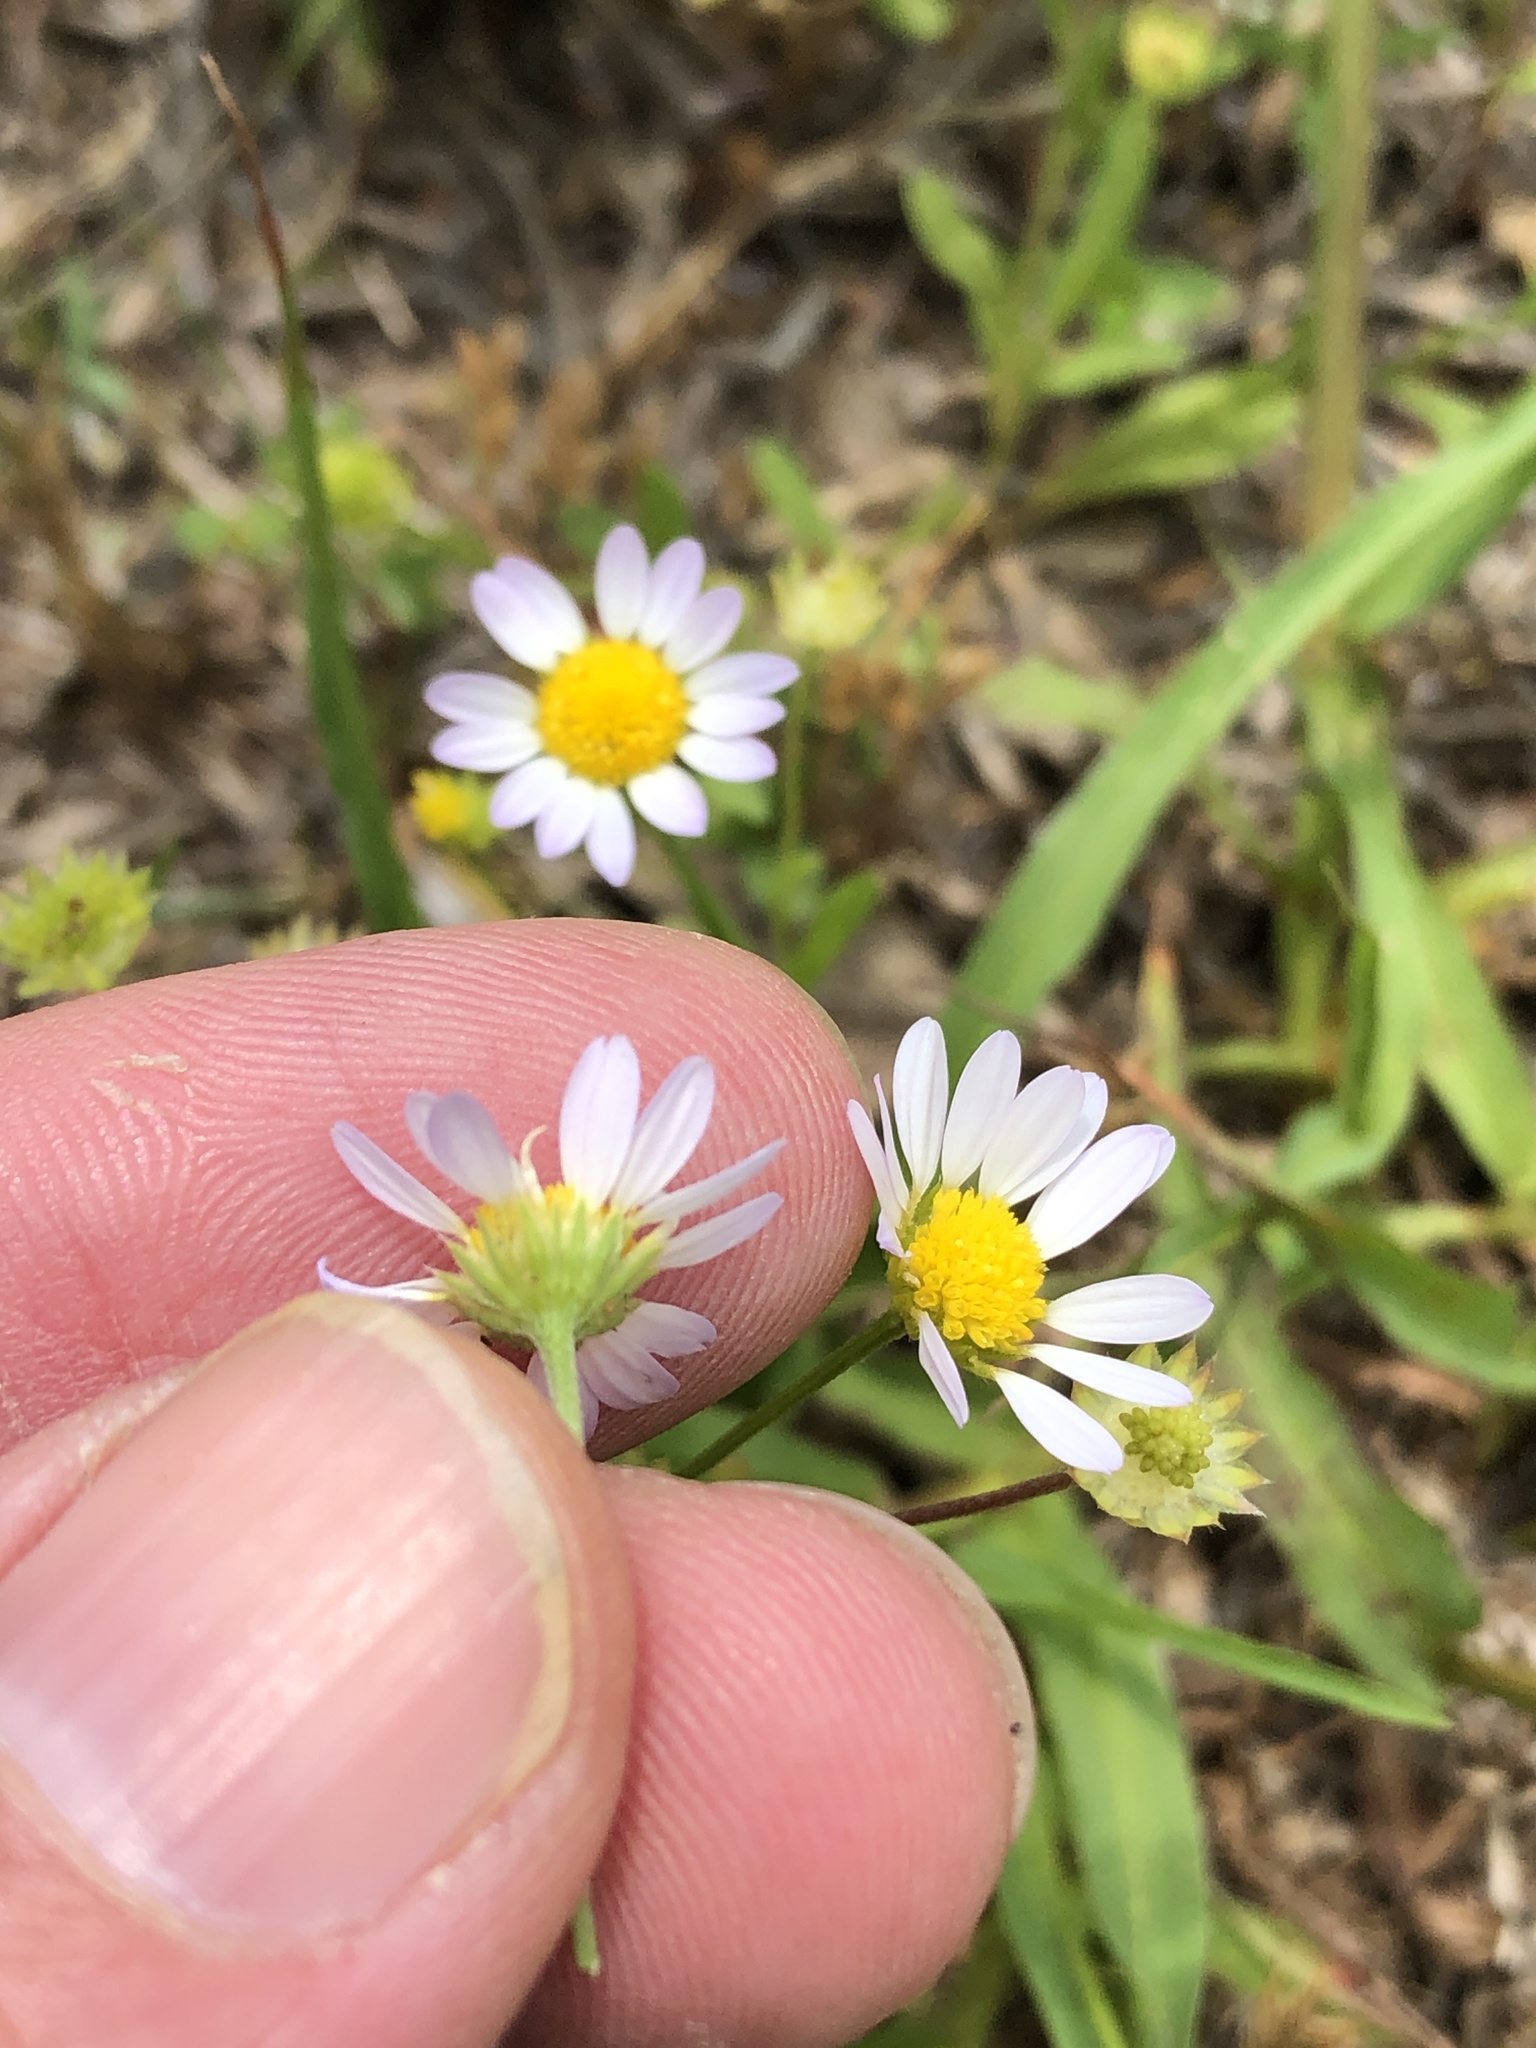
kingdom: Plantae
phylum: Tracheophyta
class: Magnoliopsida
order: Asterales
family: Asteraceae
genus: Astranthium
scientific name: Astranthium ciliatum
